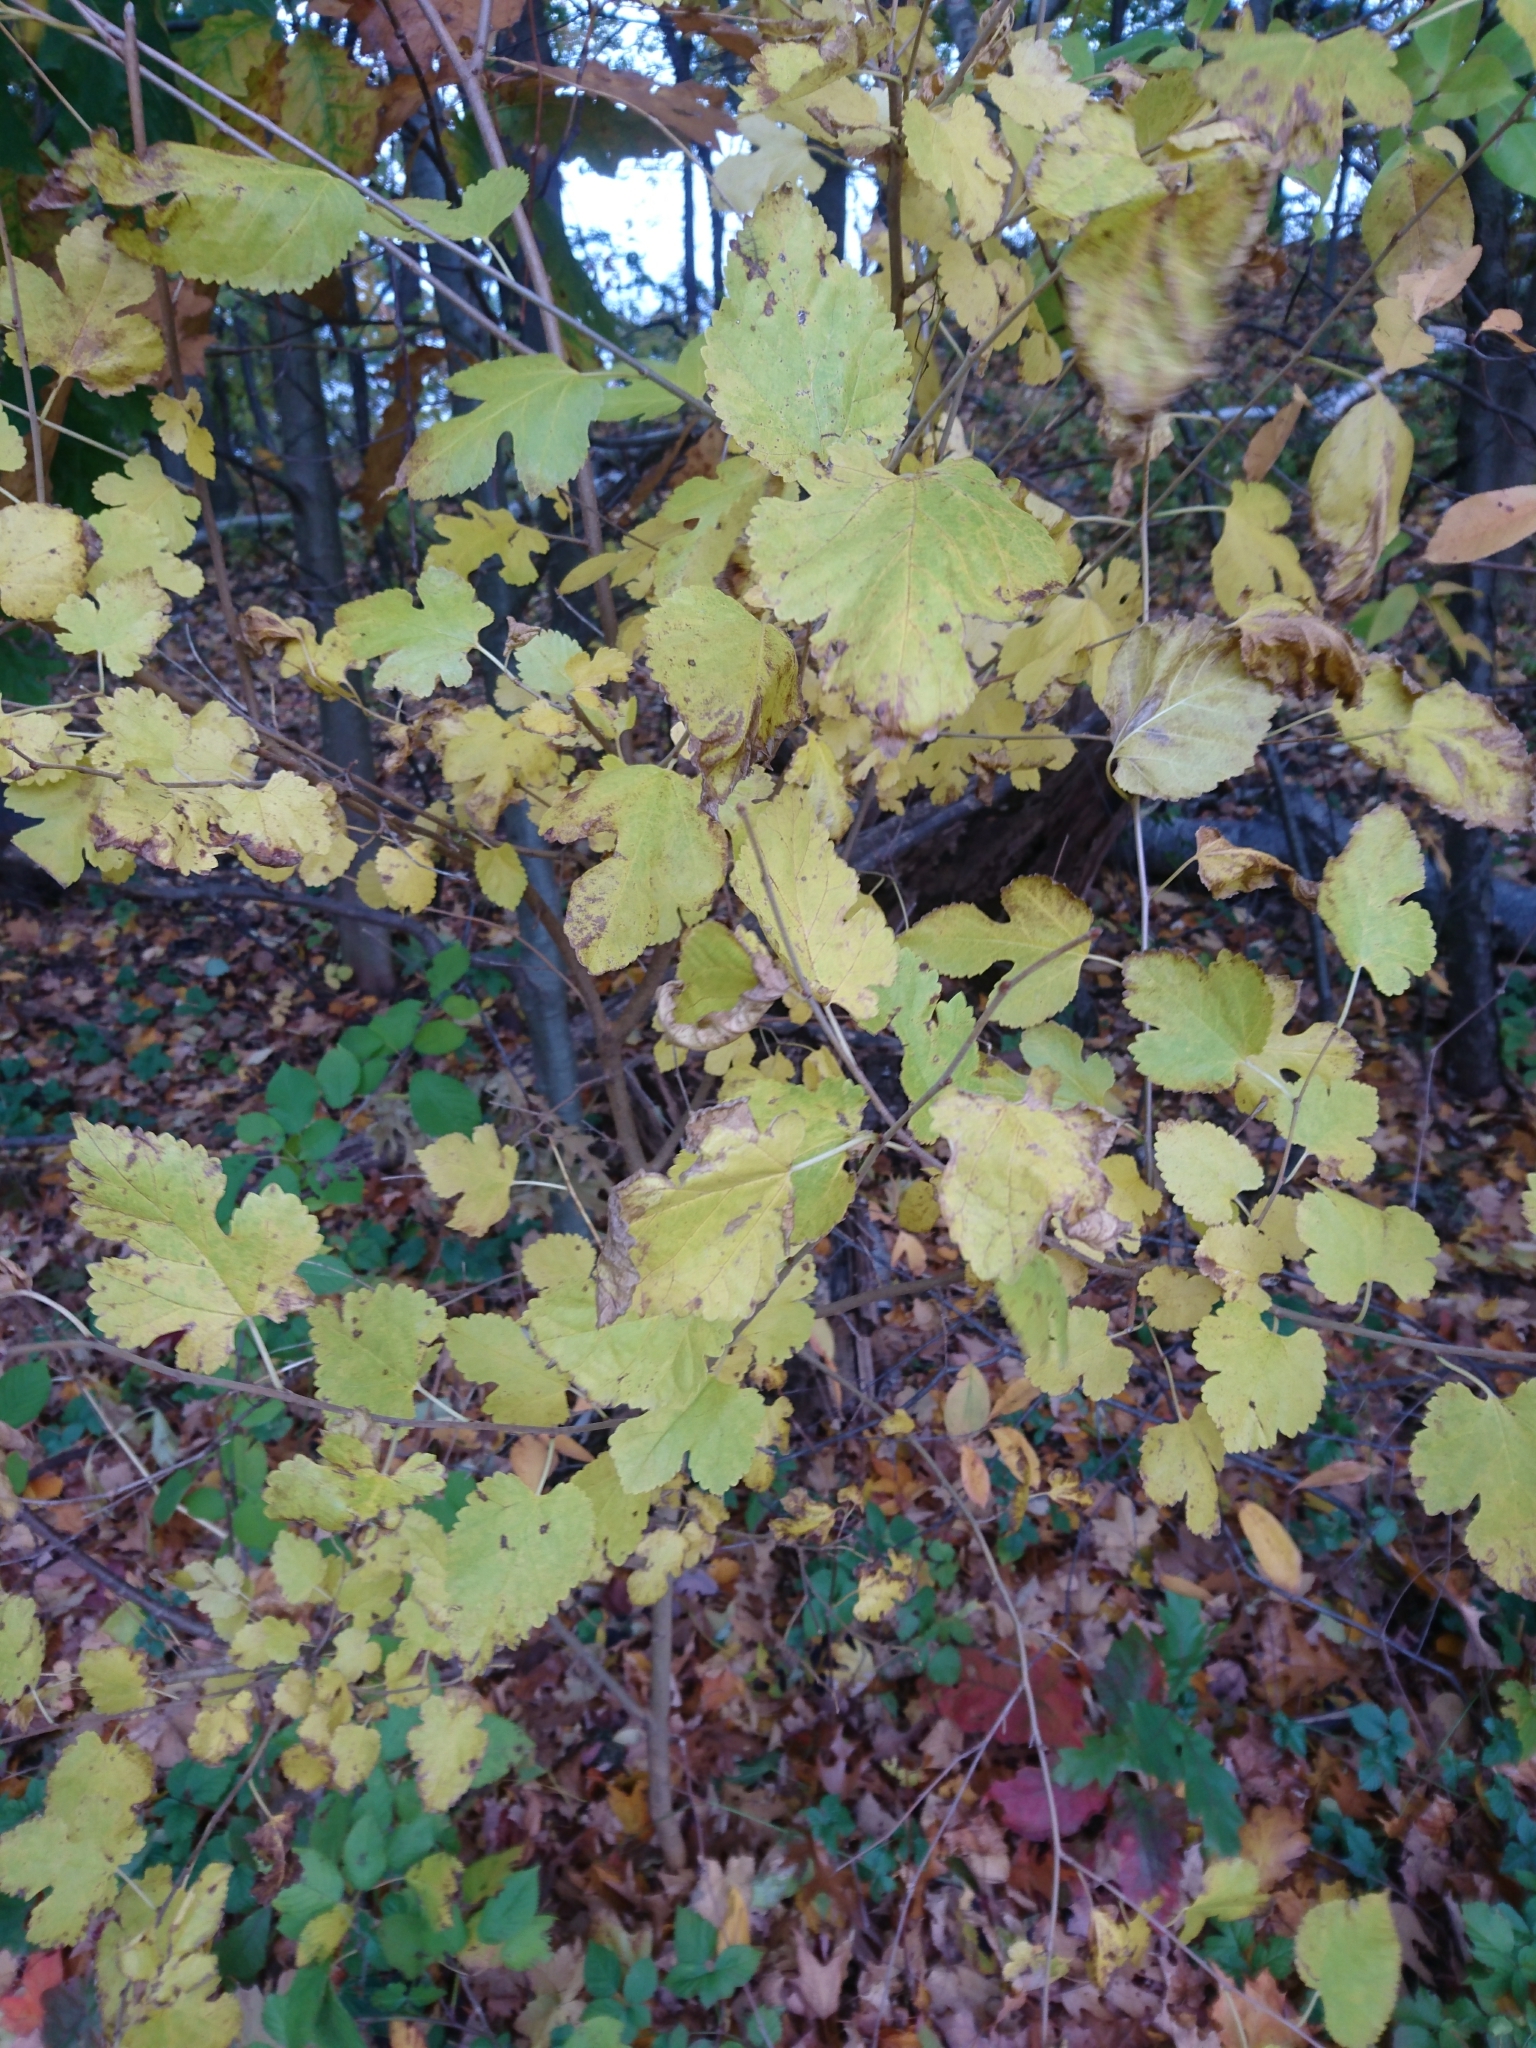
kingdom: Plantae
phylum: Tracheophyta
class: Magnoliopsida
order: Rosales
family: Moraceae
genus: Morus
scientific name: Morus alba
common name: White mulberry
